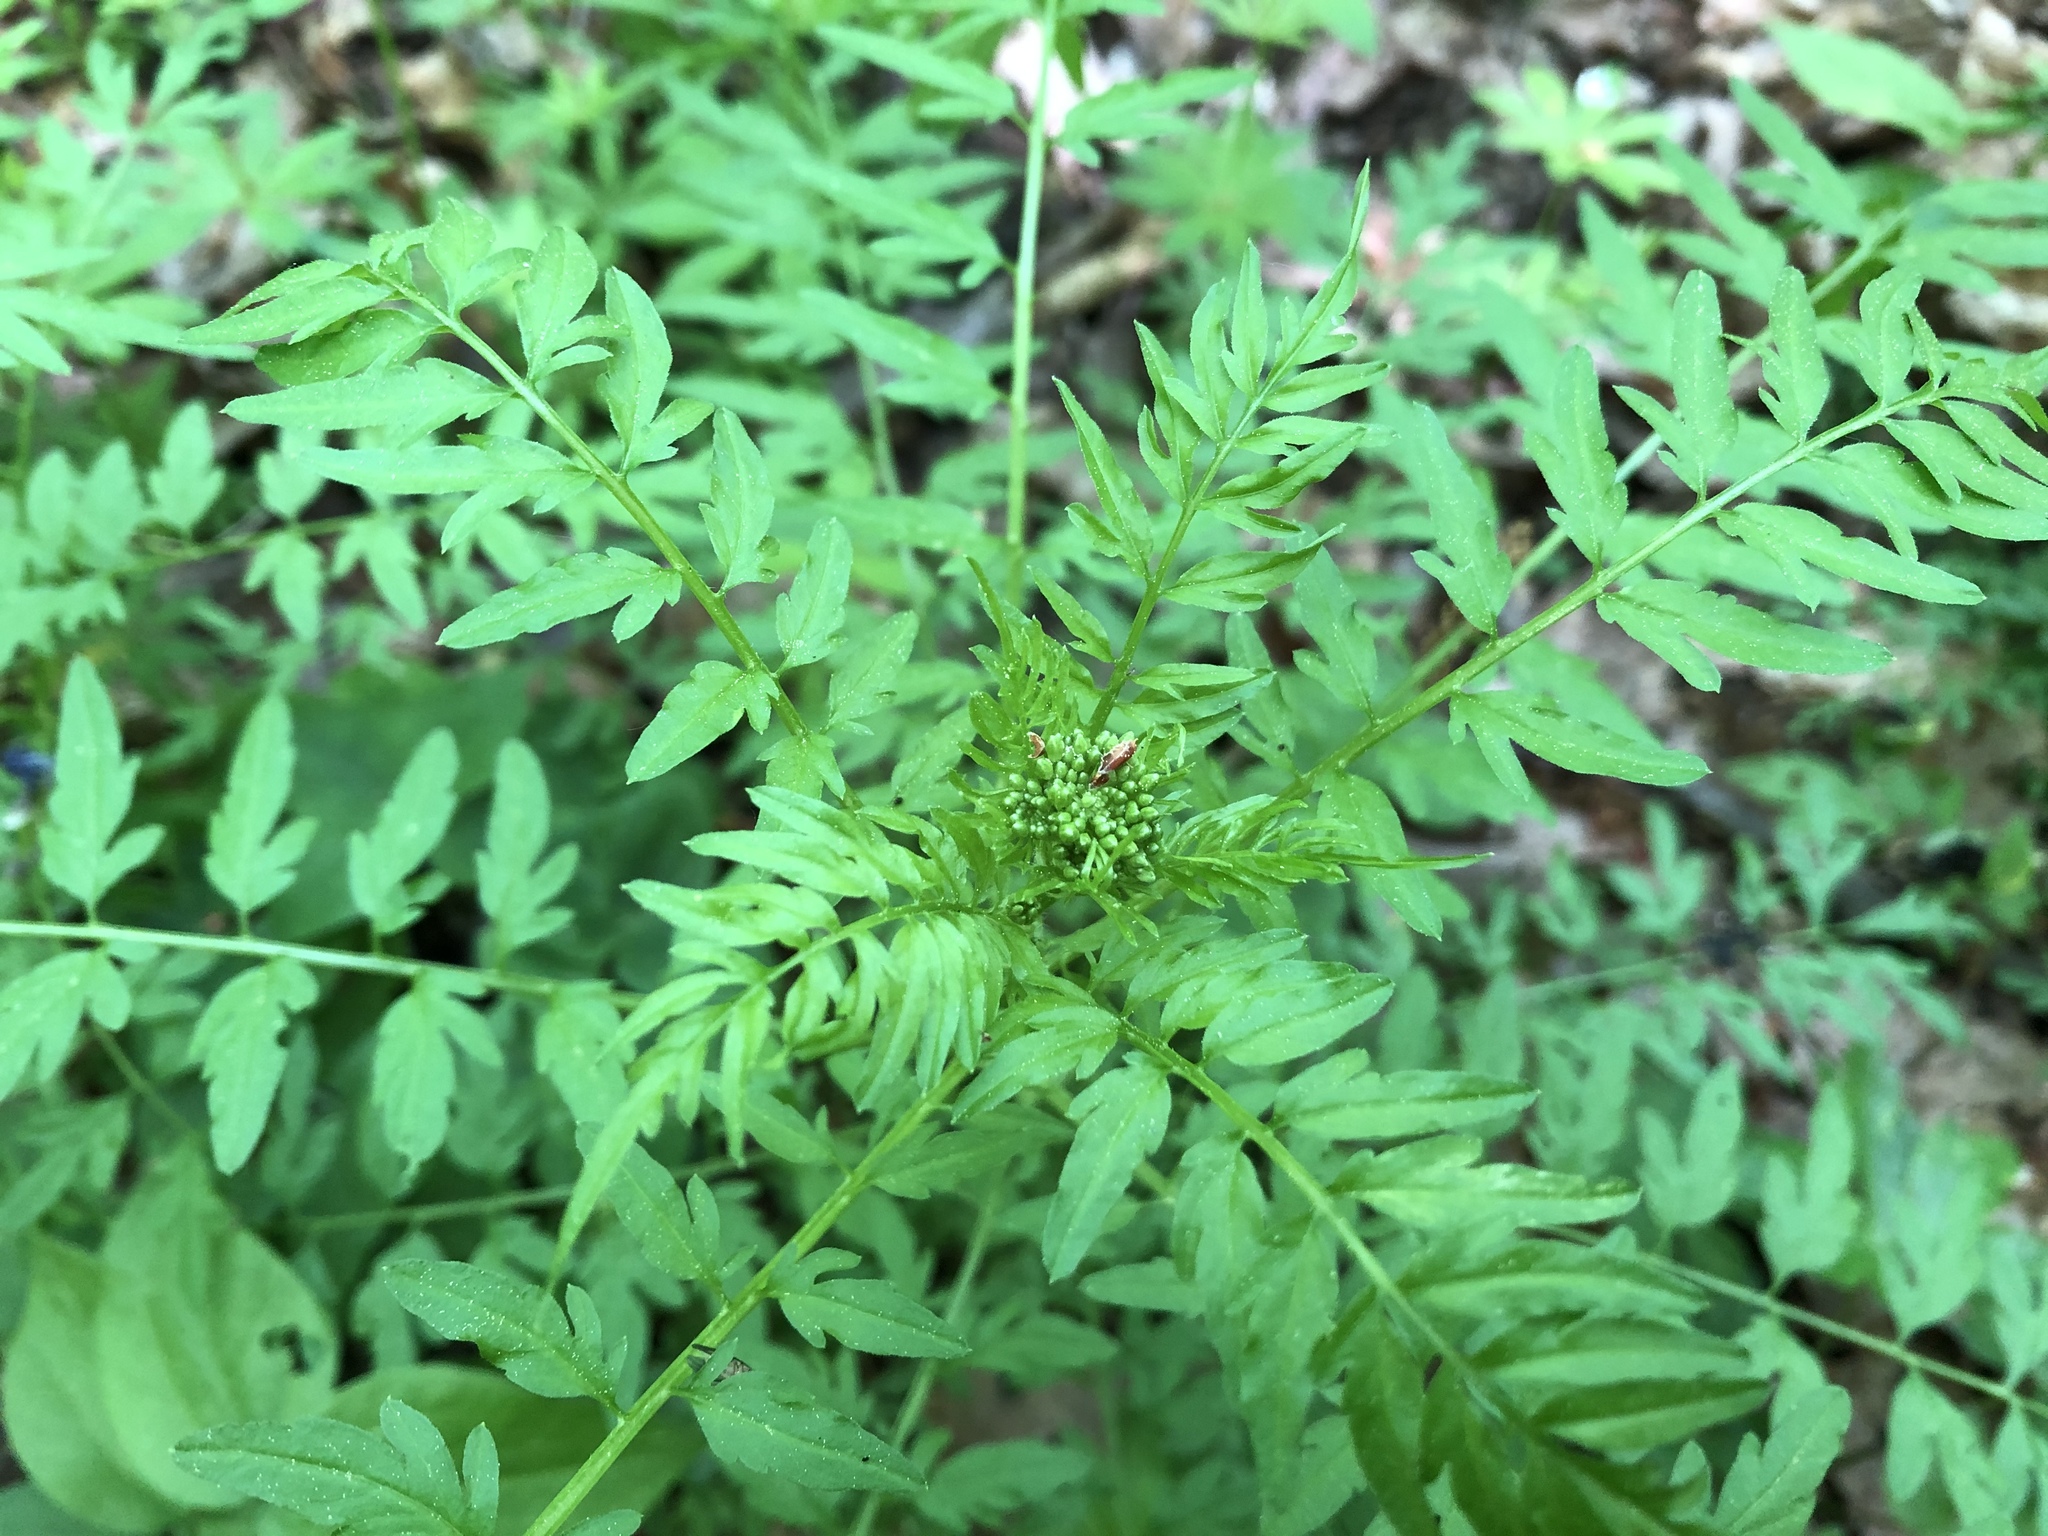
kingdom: Plantae
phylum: Tracheophyta
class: Magnoliopsida
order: Brassicales
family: Brassicaceae
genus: Cardamine
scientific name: Cardamine impatiens
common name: Narrow-leaved bitter-cress
